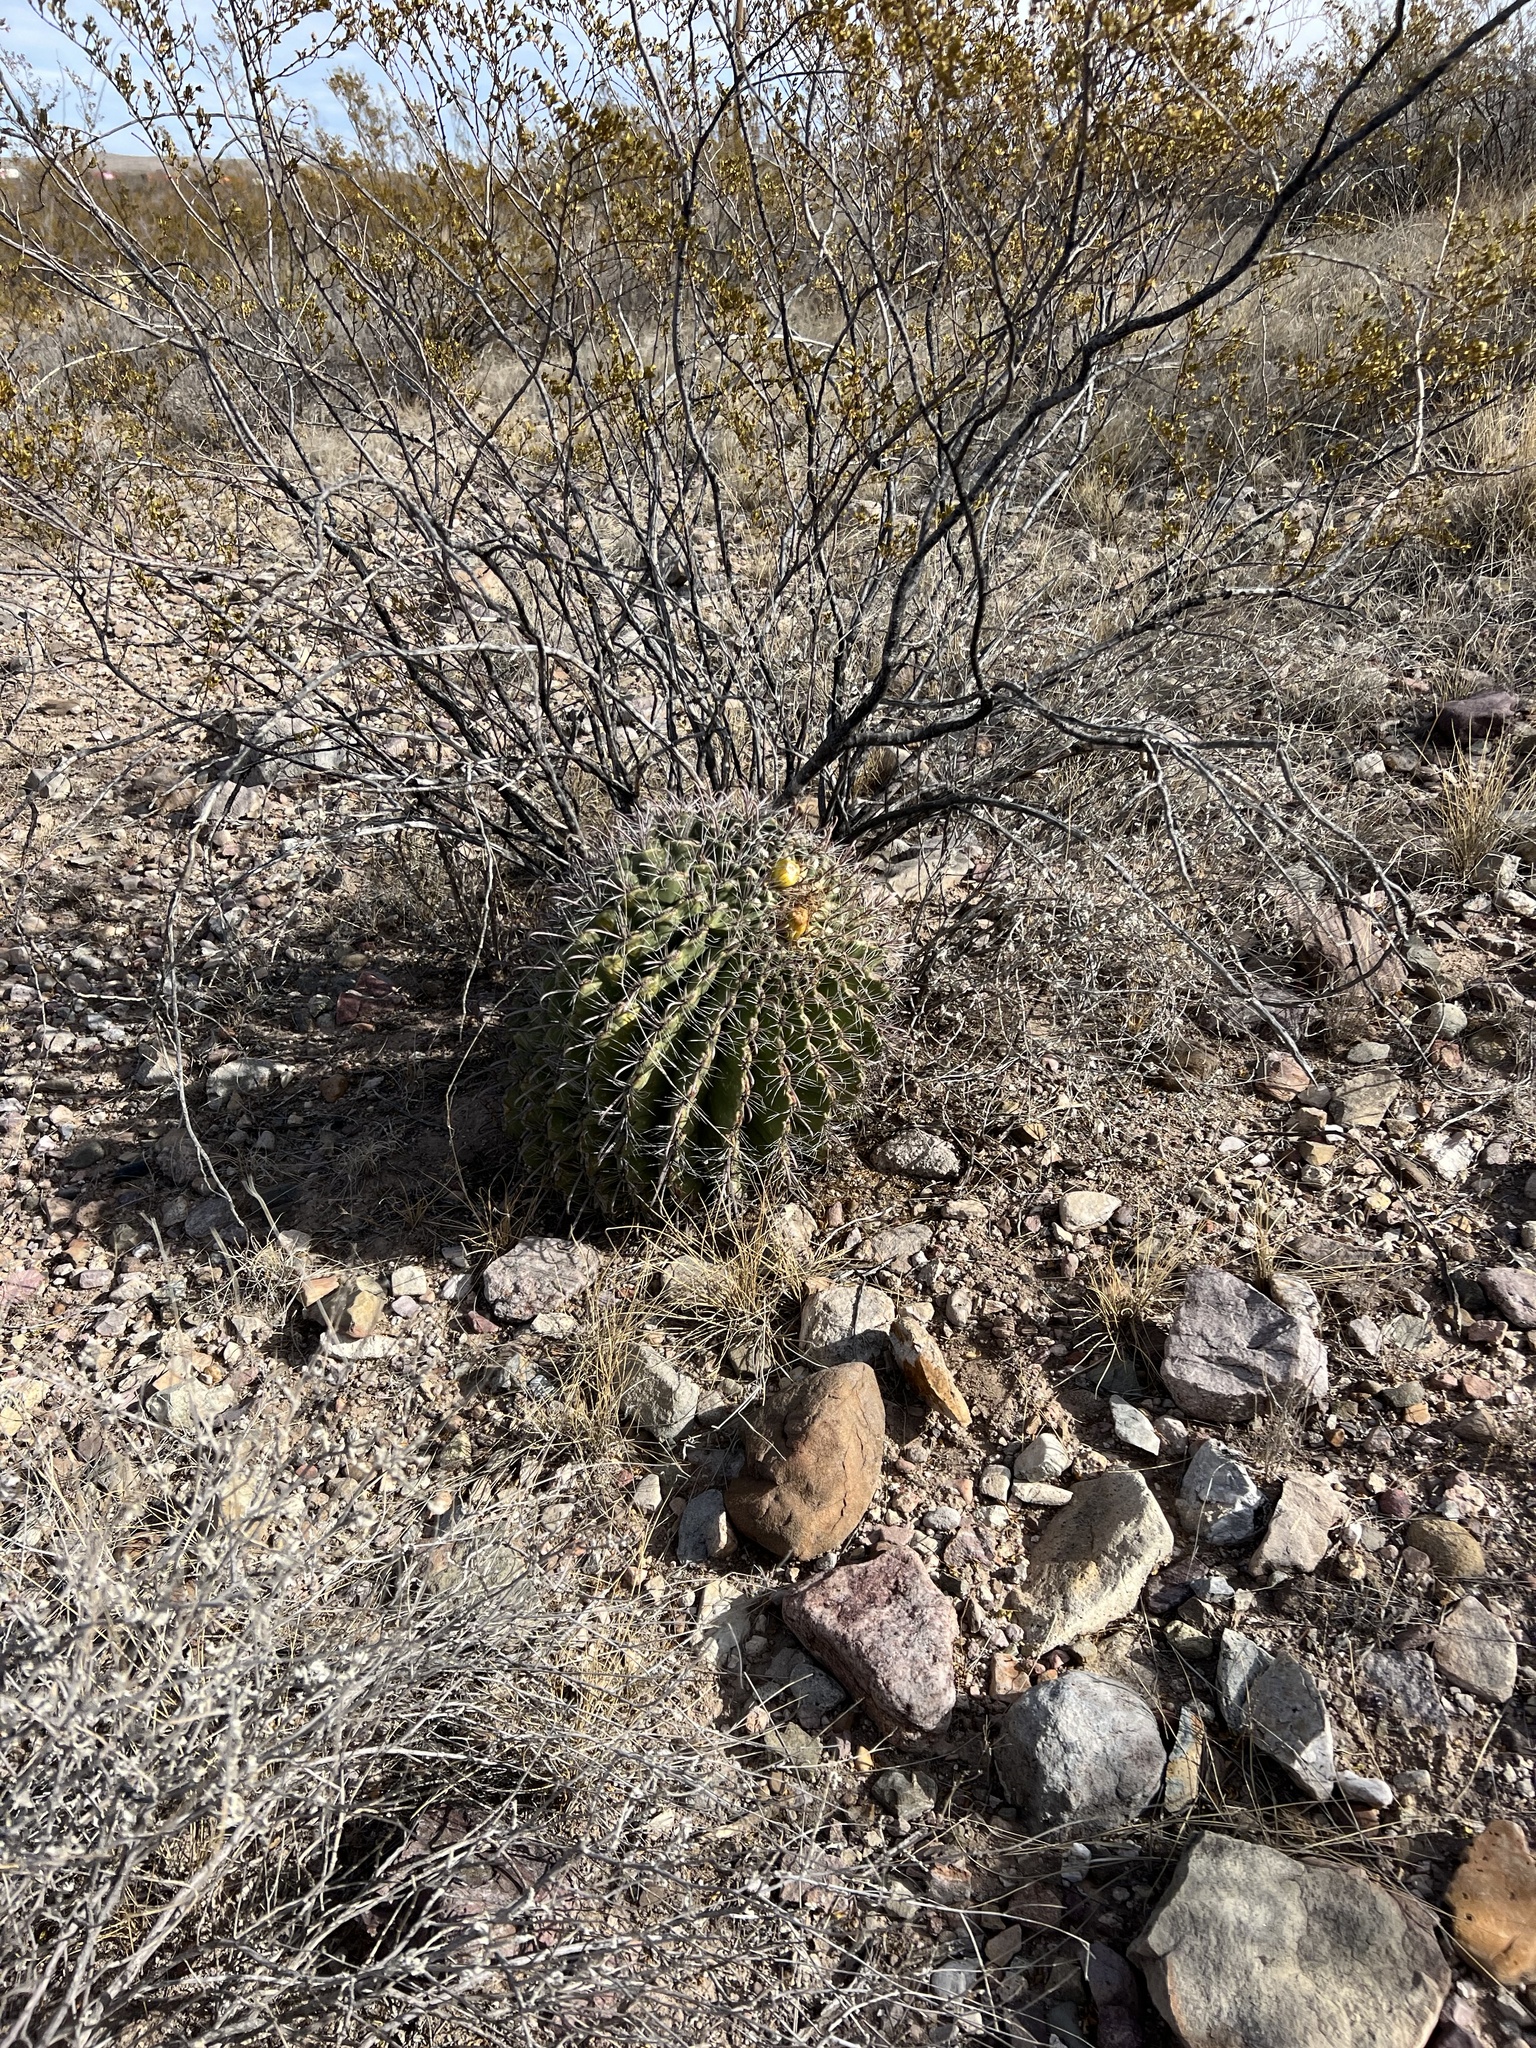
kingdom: Plantae
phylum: Tracheophyta
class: Magnoliopsida
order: Caryophyllales
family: Cactaceae
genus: Ferocactus
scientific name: Ferocactus wislizeni
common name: Candy barrel cactus
